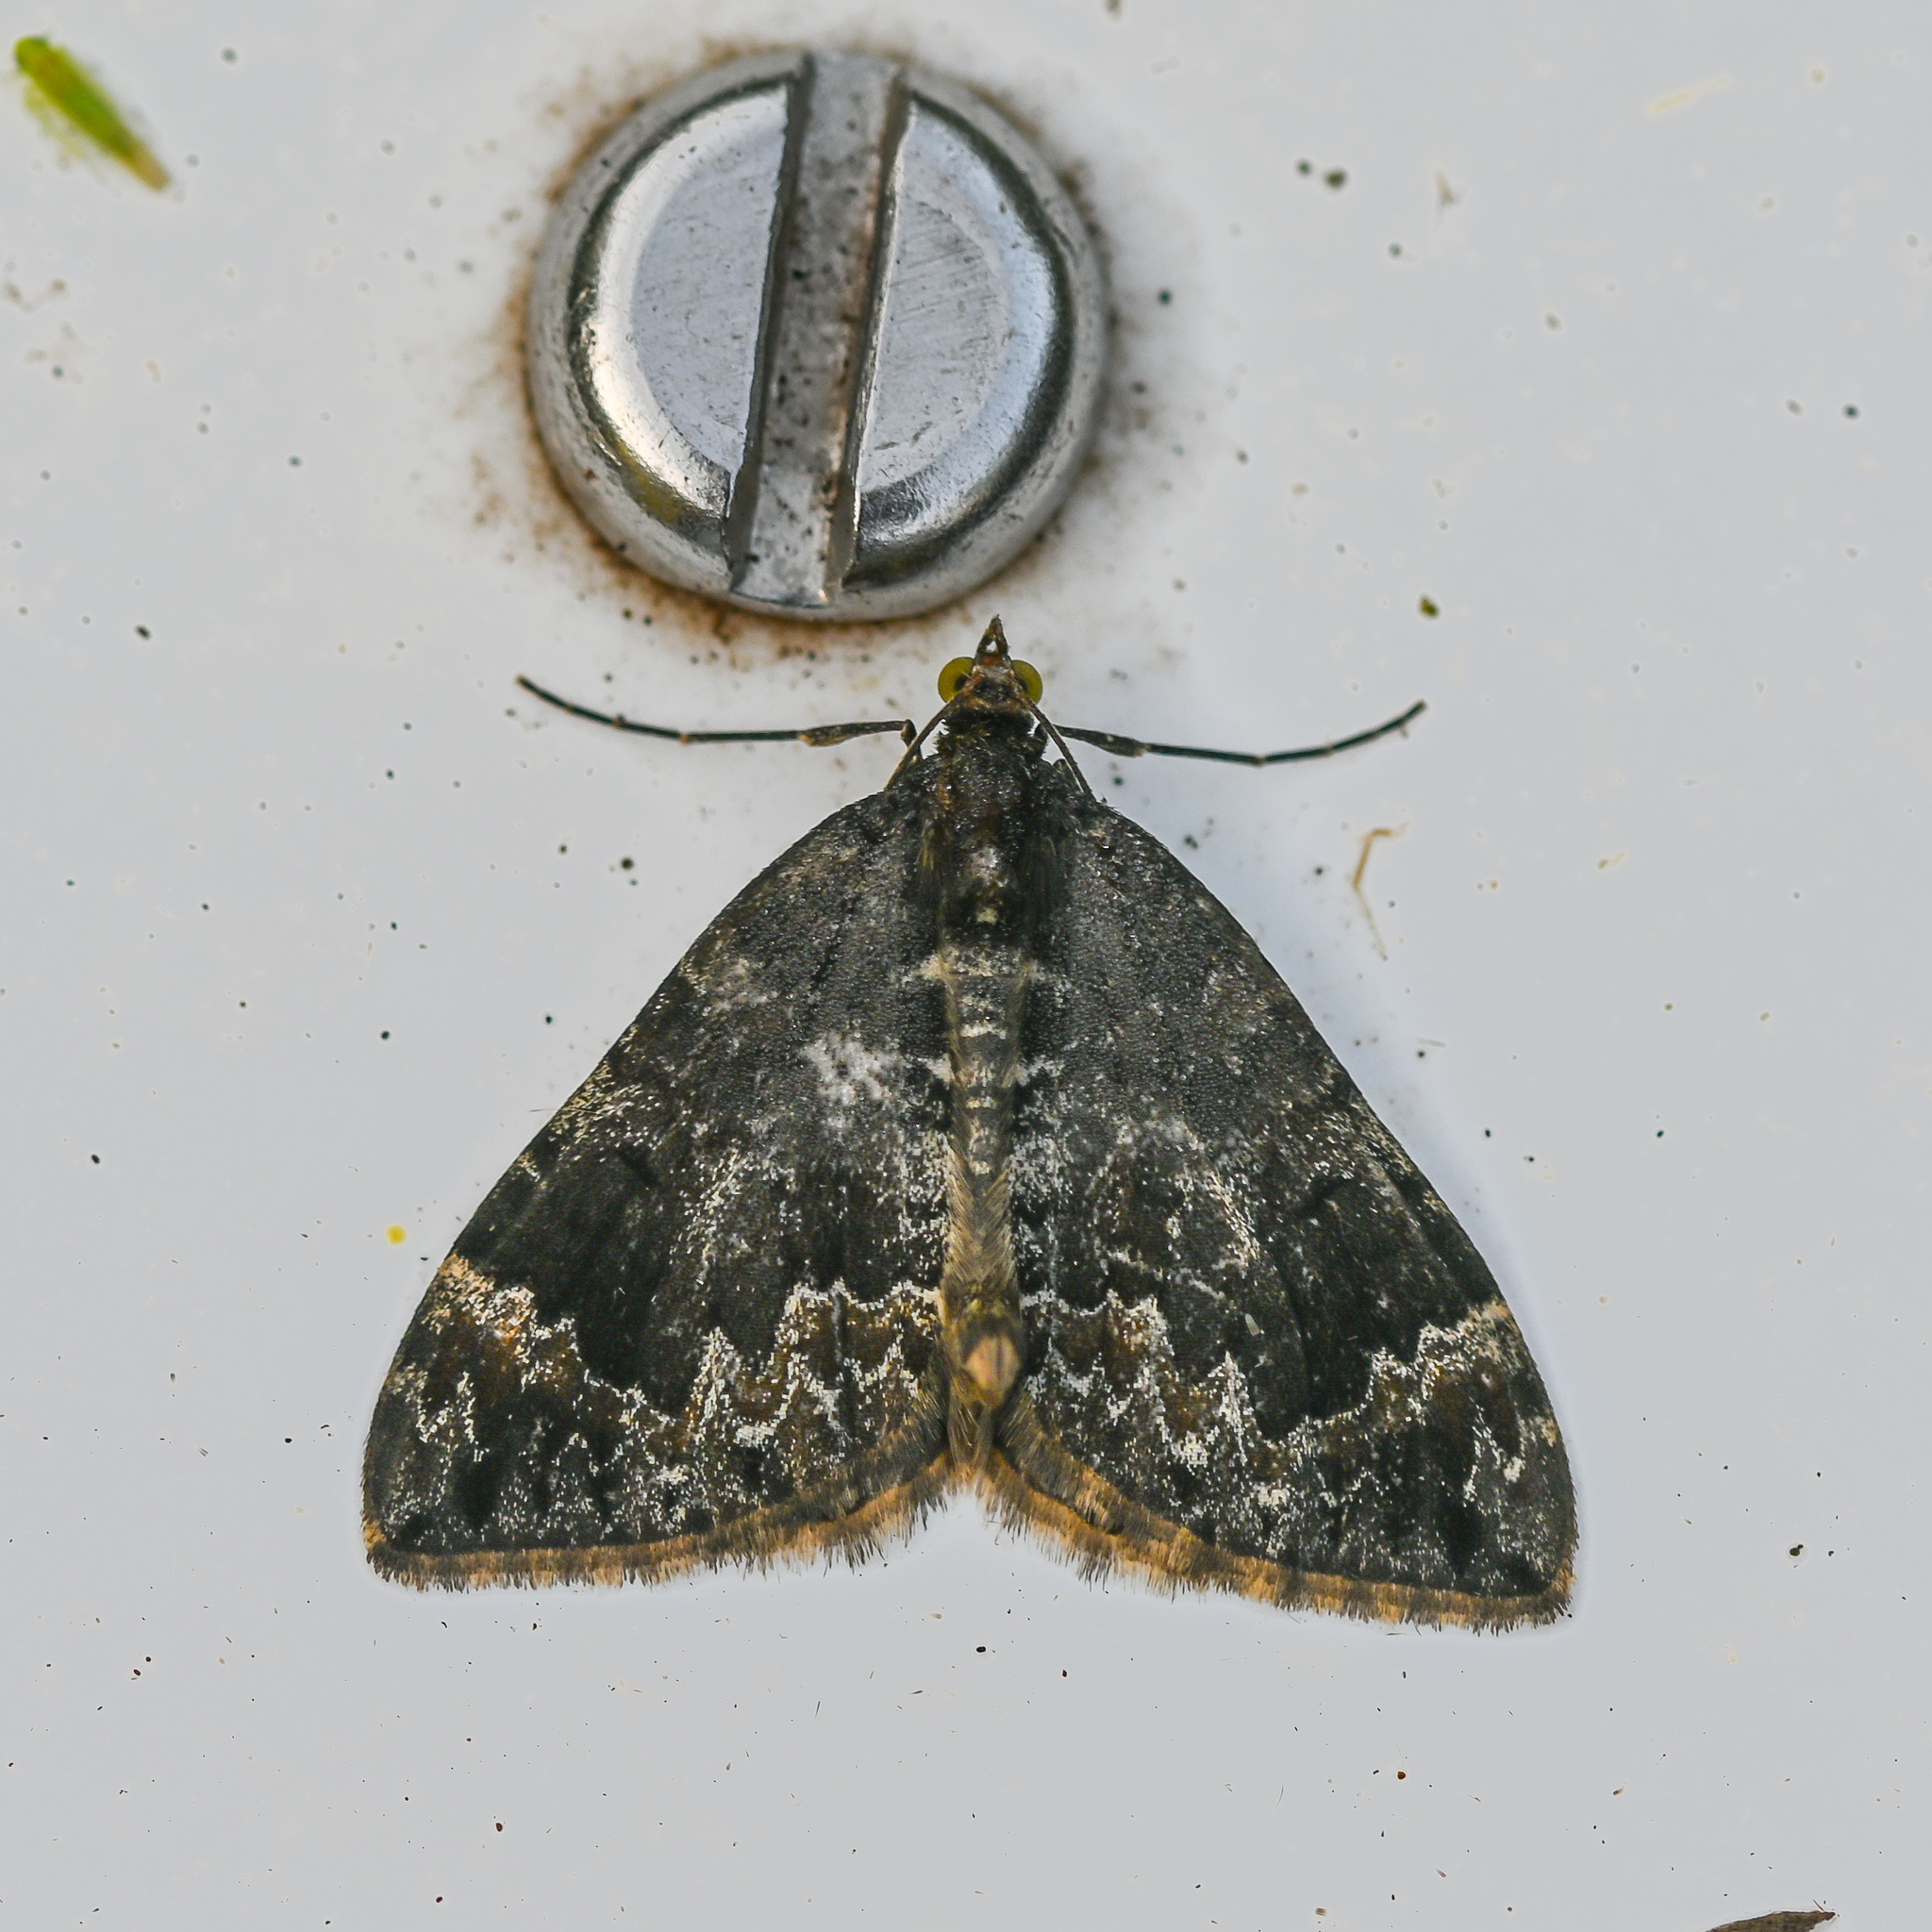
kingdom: Animalia
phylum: Arthropoda
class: Insecta
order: Lepidoptera
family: Geometridae
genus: Dysstroma
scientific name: Dysstroma truncata
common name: Common marbled carpet
